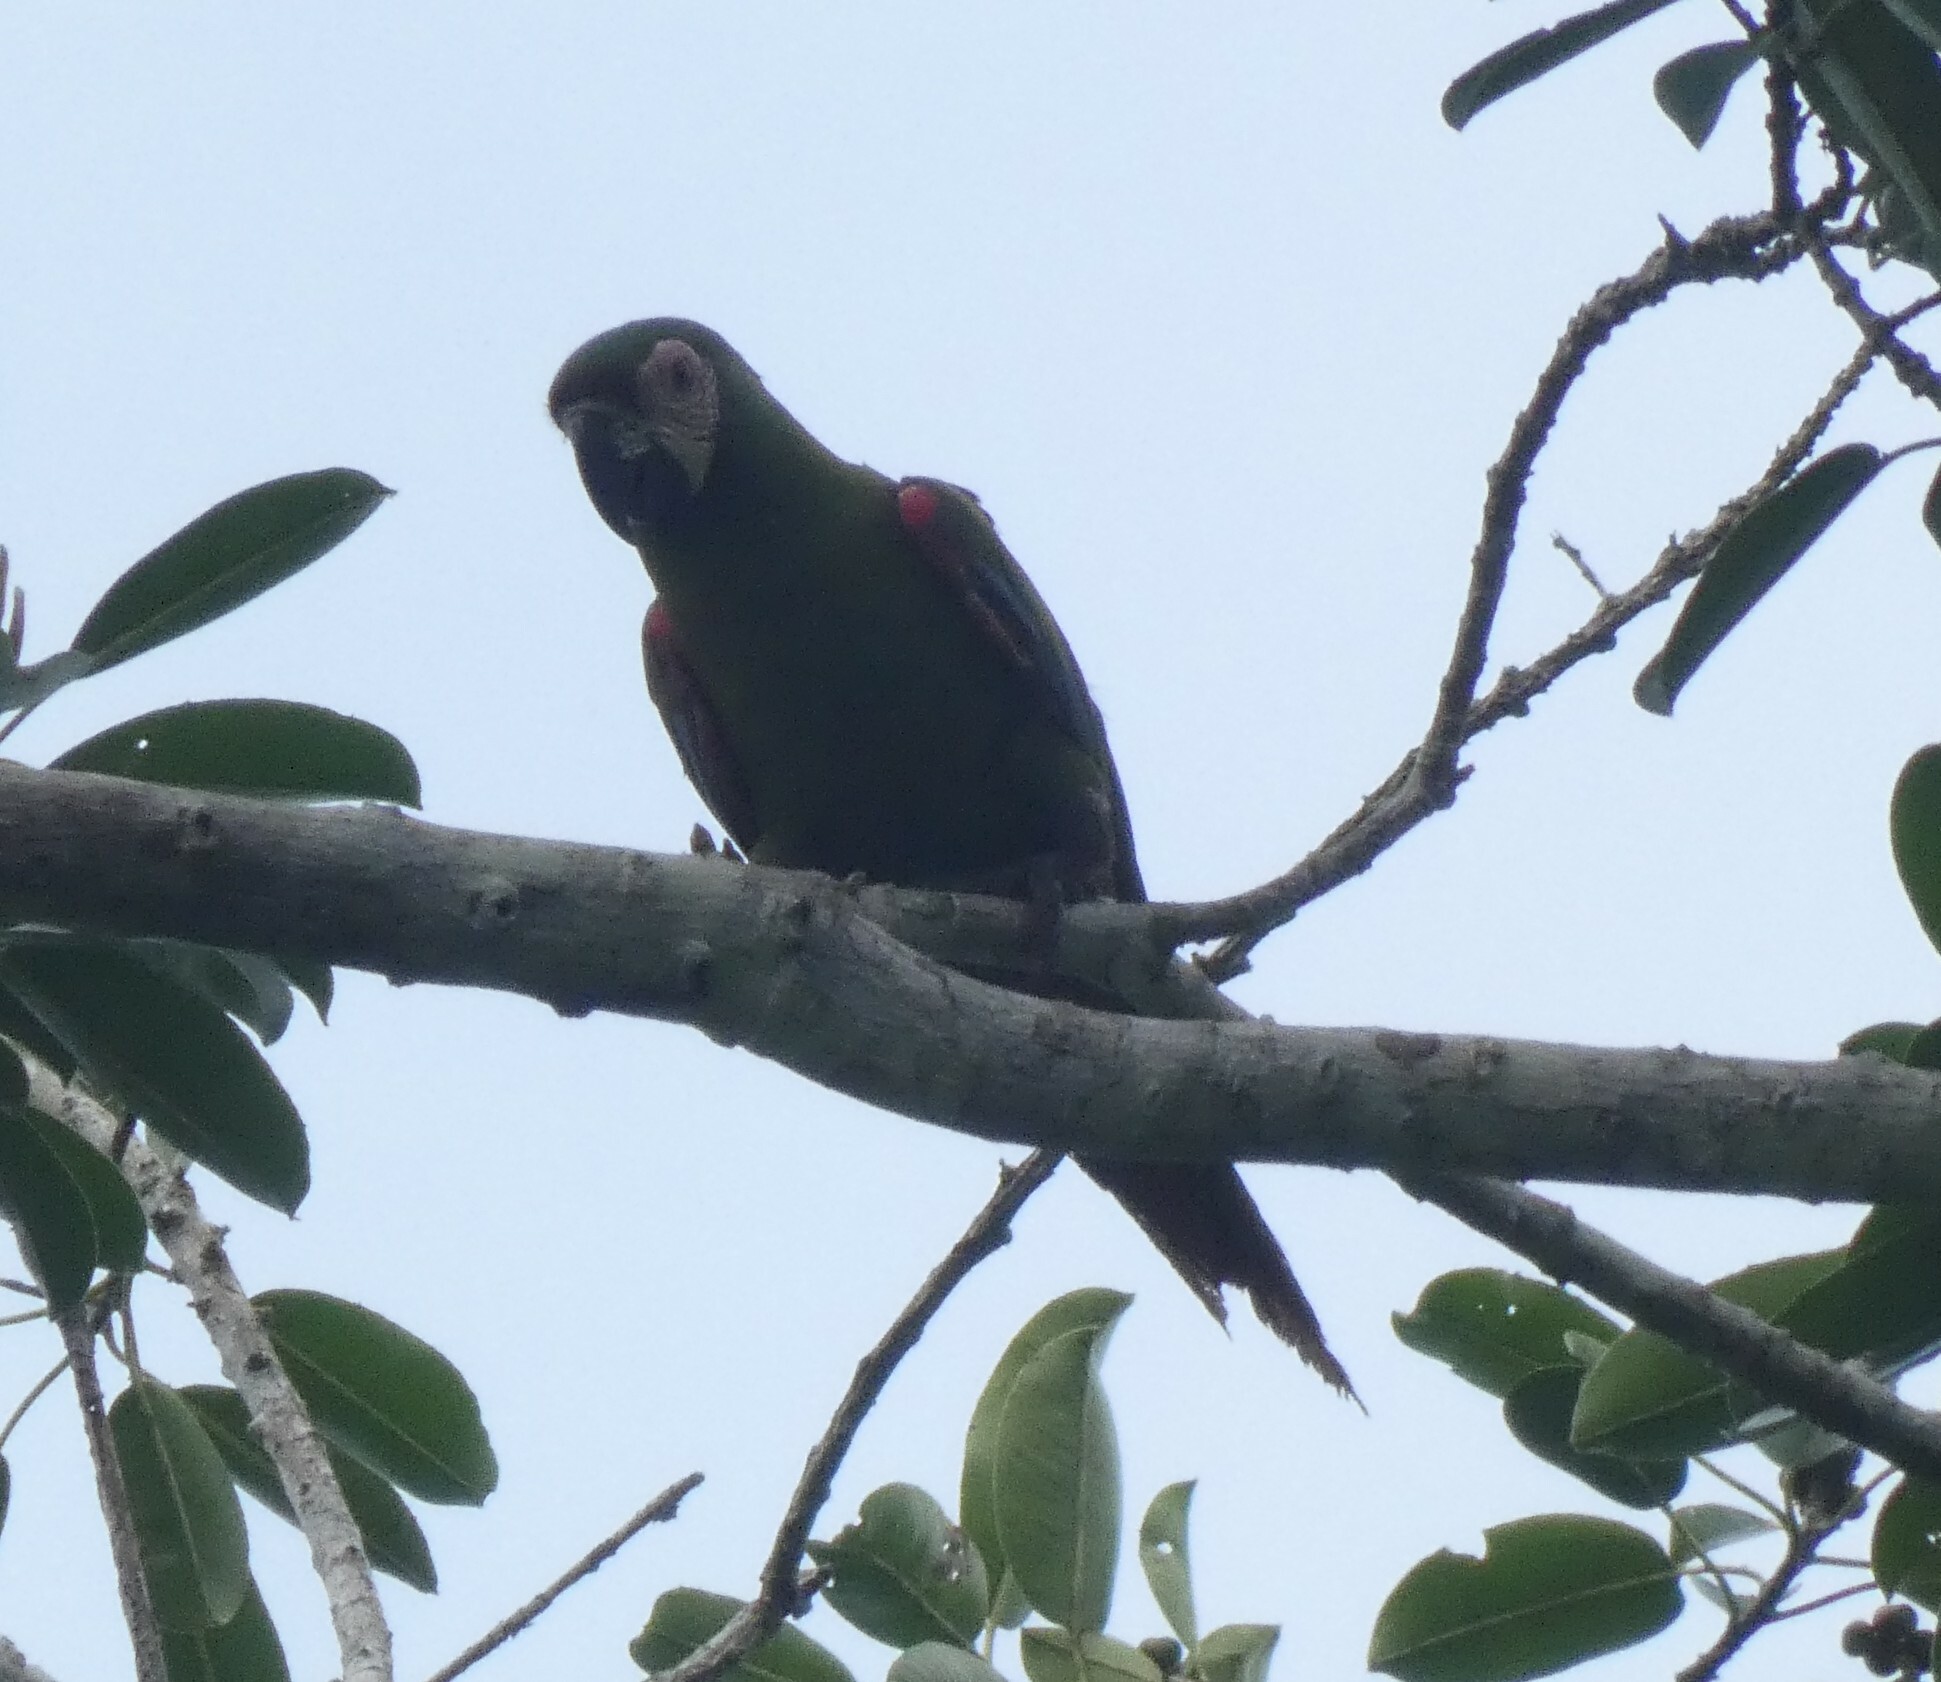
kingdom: Animalia
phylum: Chordata
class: Aves
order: Psittaciformes
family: Psittacidae
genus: Ara
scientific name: Ara severus
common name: Chestnut-fronted macaw
